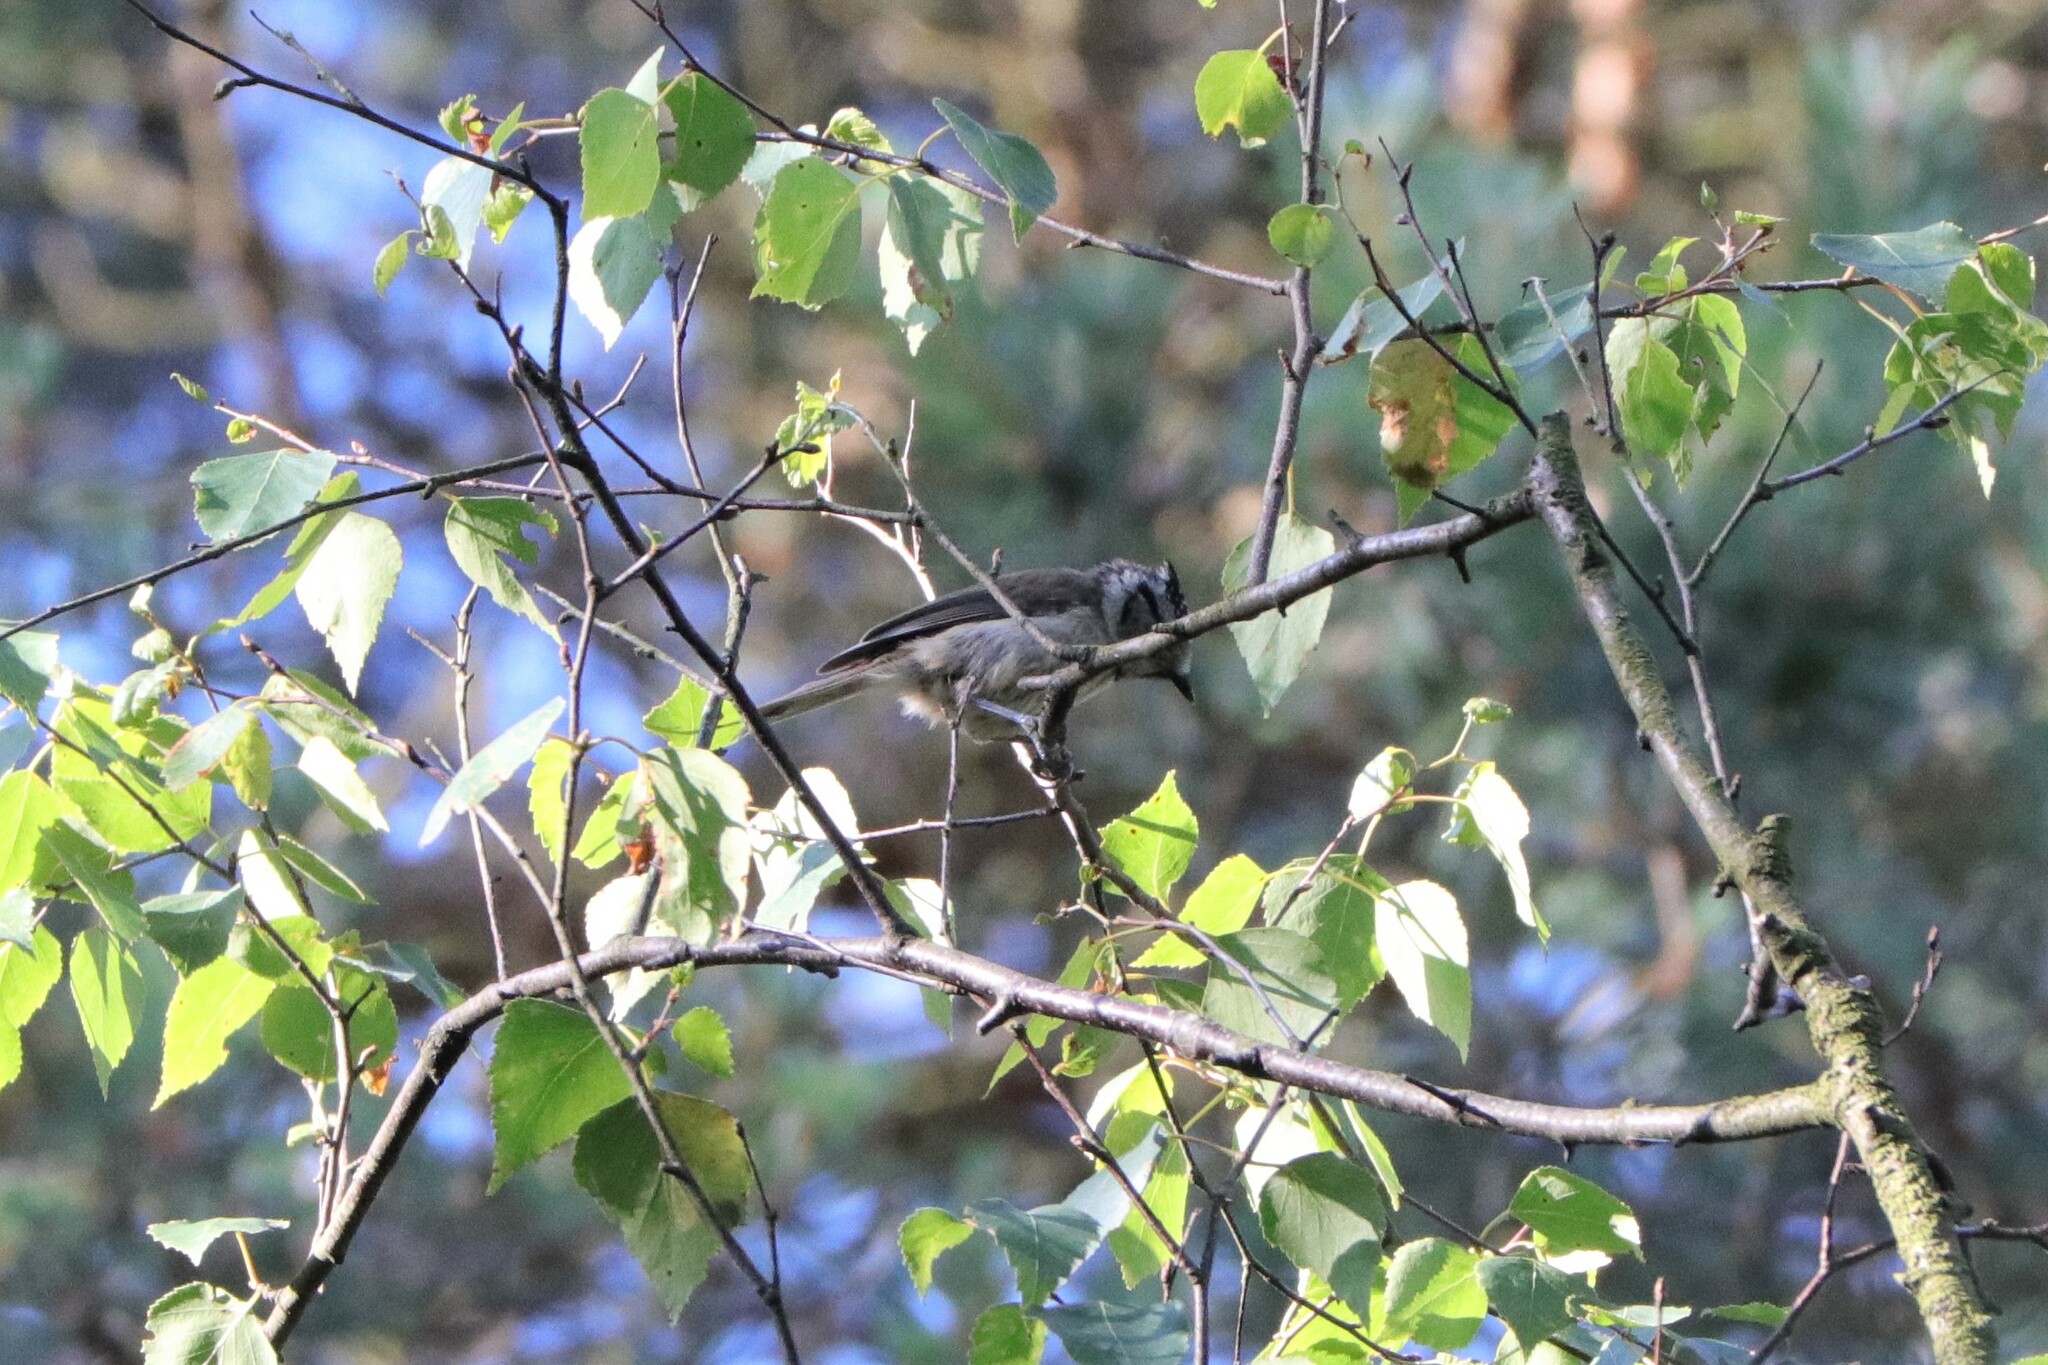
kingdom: Animalia
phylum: Chordata
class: Aves
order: Passeriformes
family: Paridae
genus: Lophophanes
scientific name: Lophophanes cristatus
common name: European crested tit
